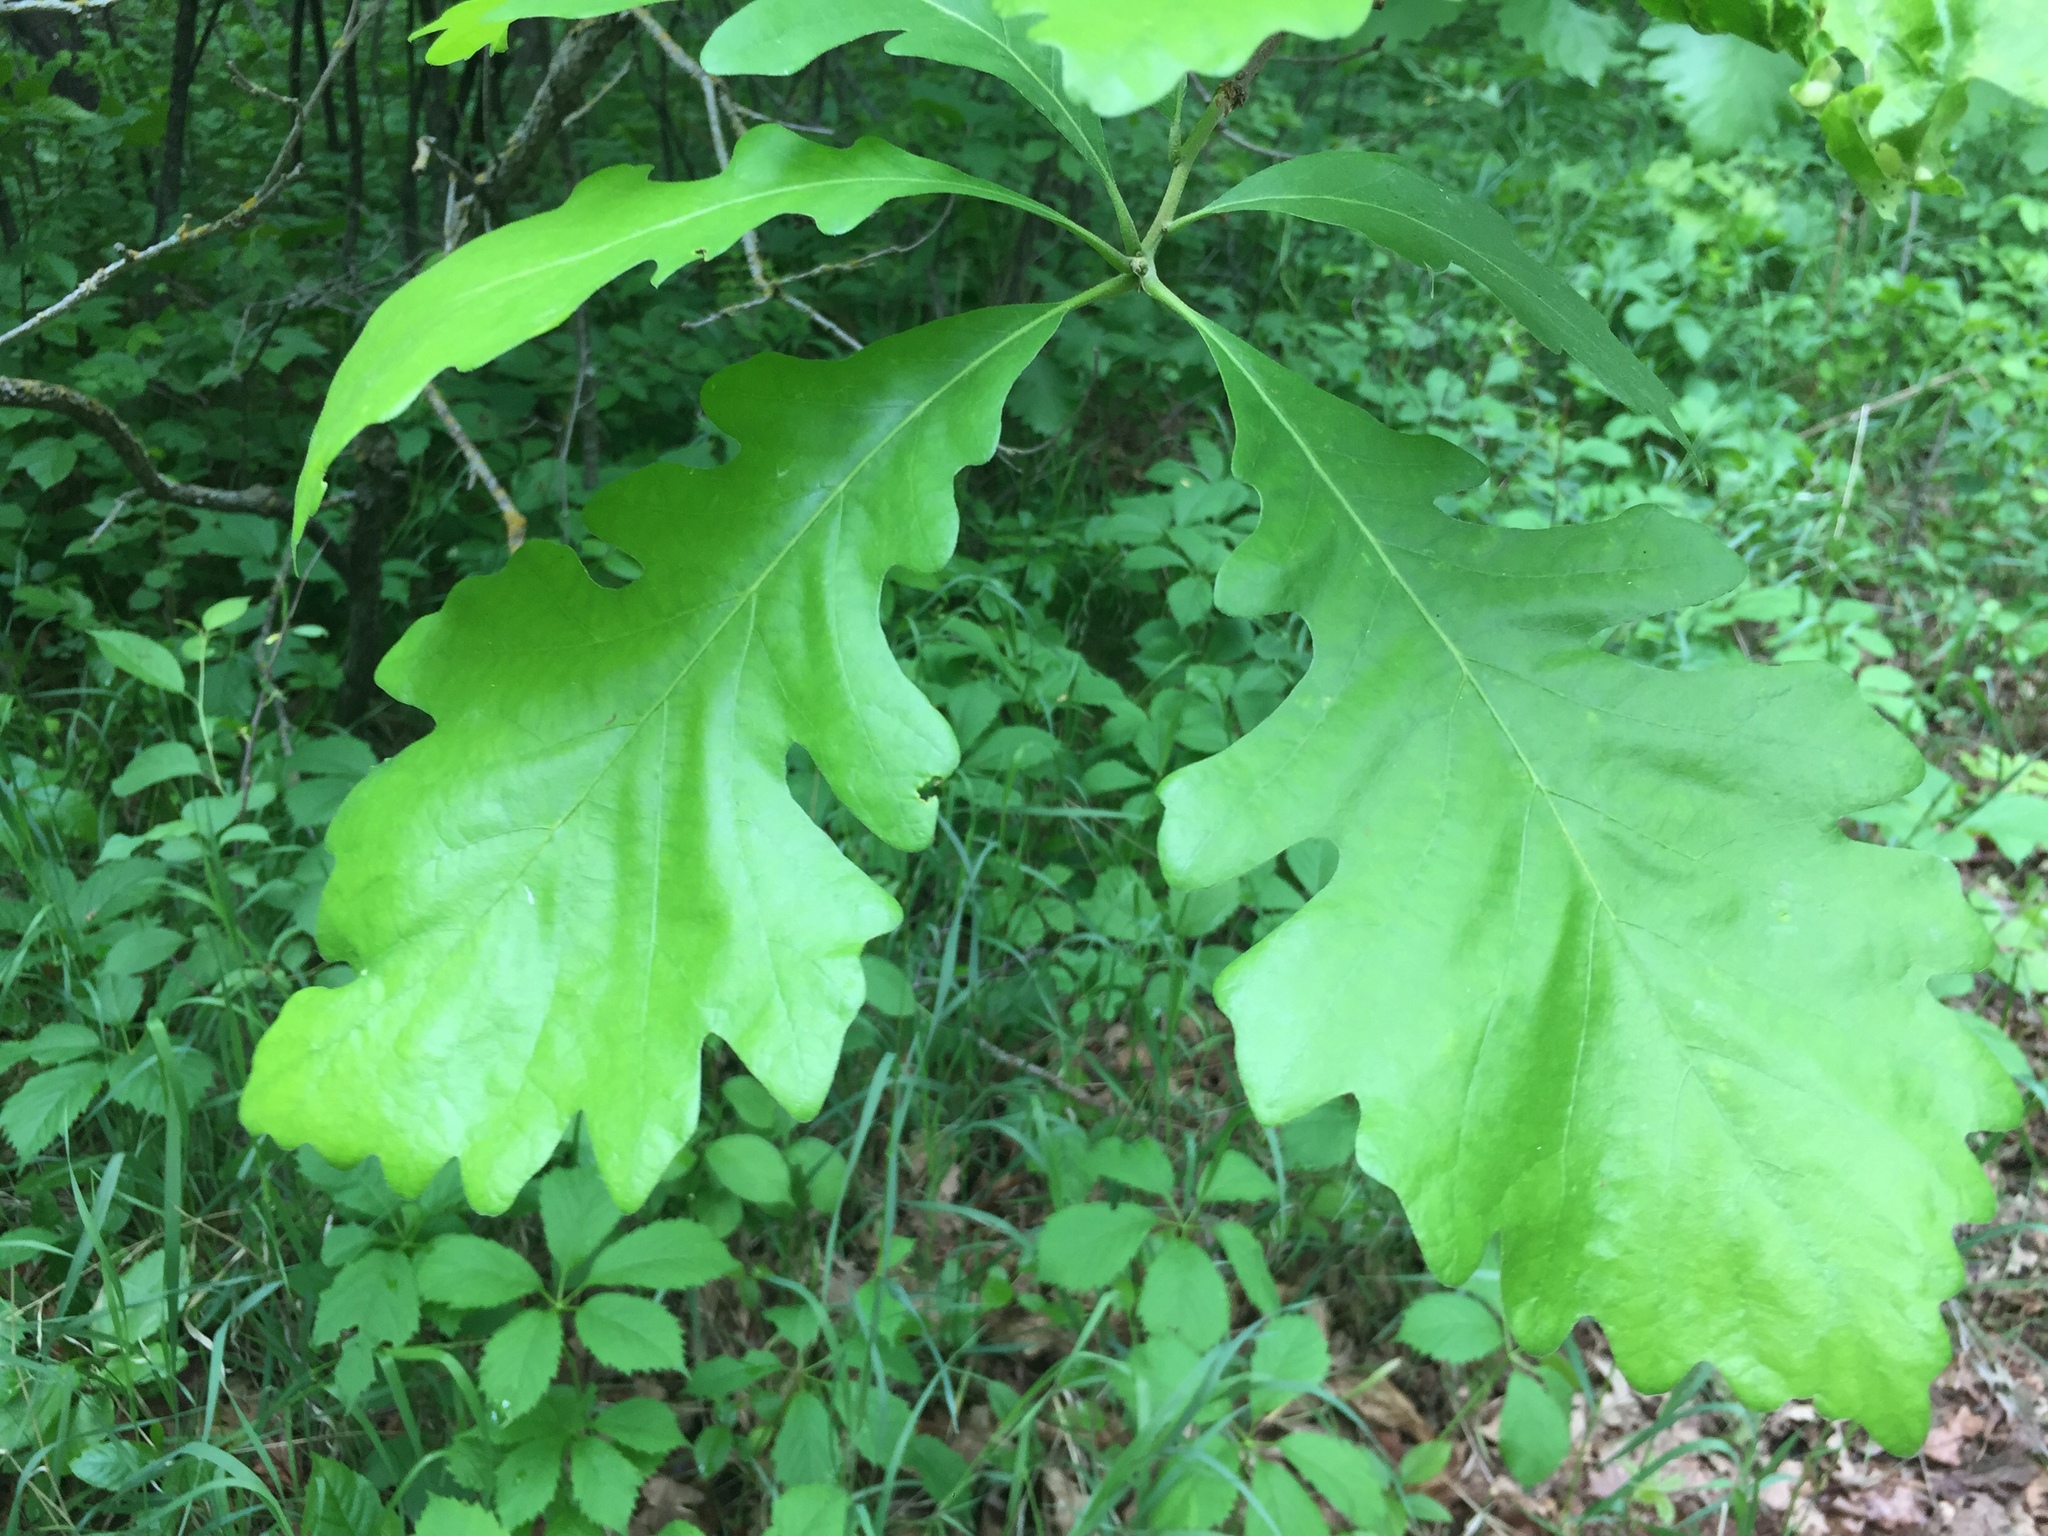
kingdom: Plantae
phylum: Tracheophyta
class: Magnoliopsida
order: Fagales
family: Fagaceae
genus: Quercus
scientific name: Quercus macrocarpa
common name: Bur oak
